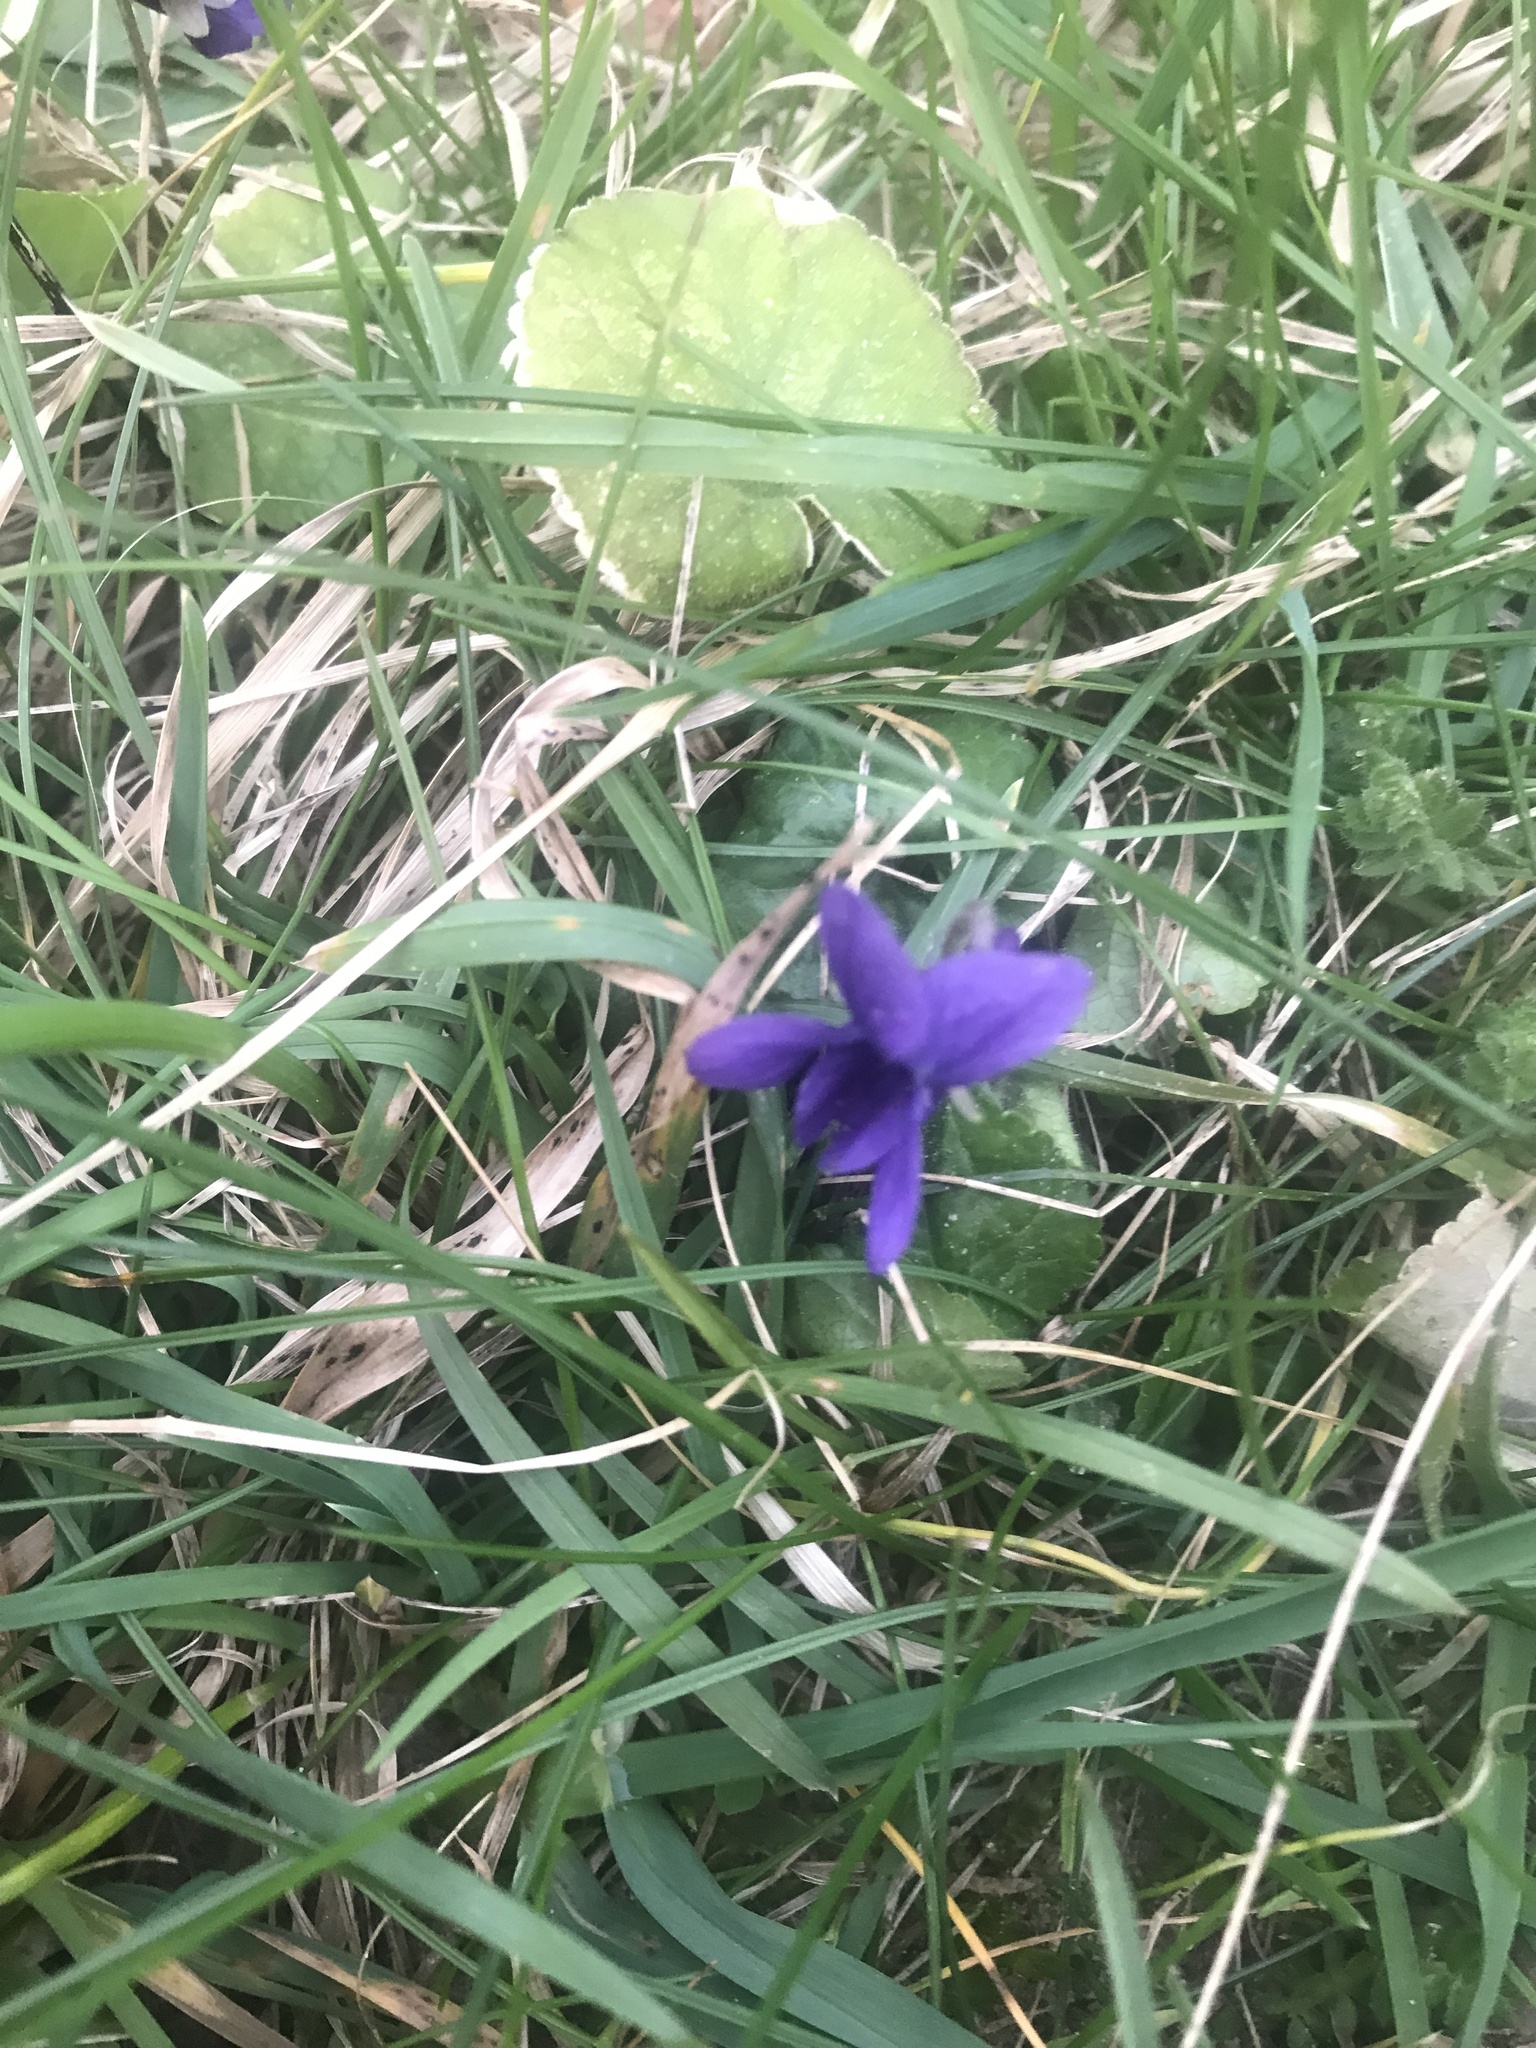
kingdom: Plantae
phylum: Tracheophyta
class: Magnoliopsida
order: Malpighiales
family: Violaceae
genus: Viola
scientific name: Viola odorata
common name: Sweet violet
